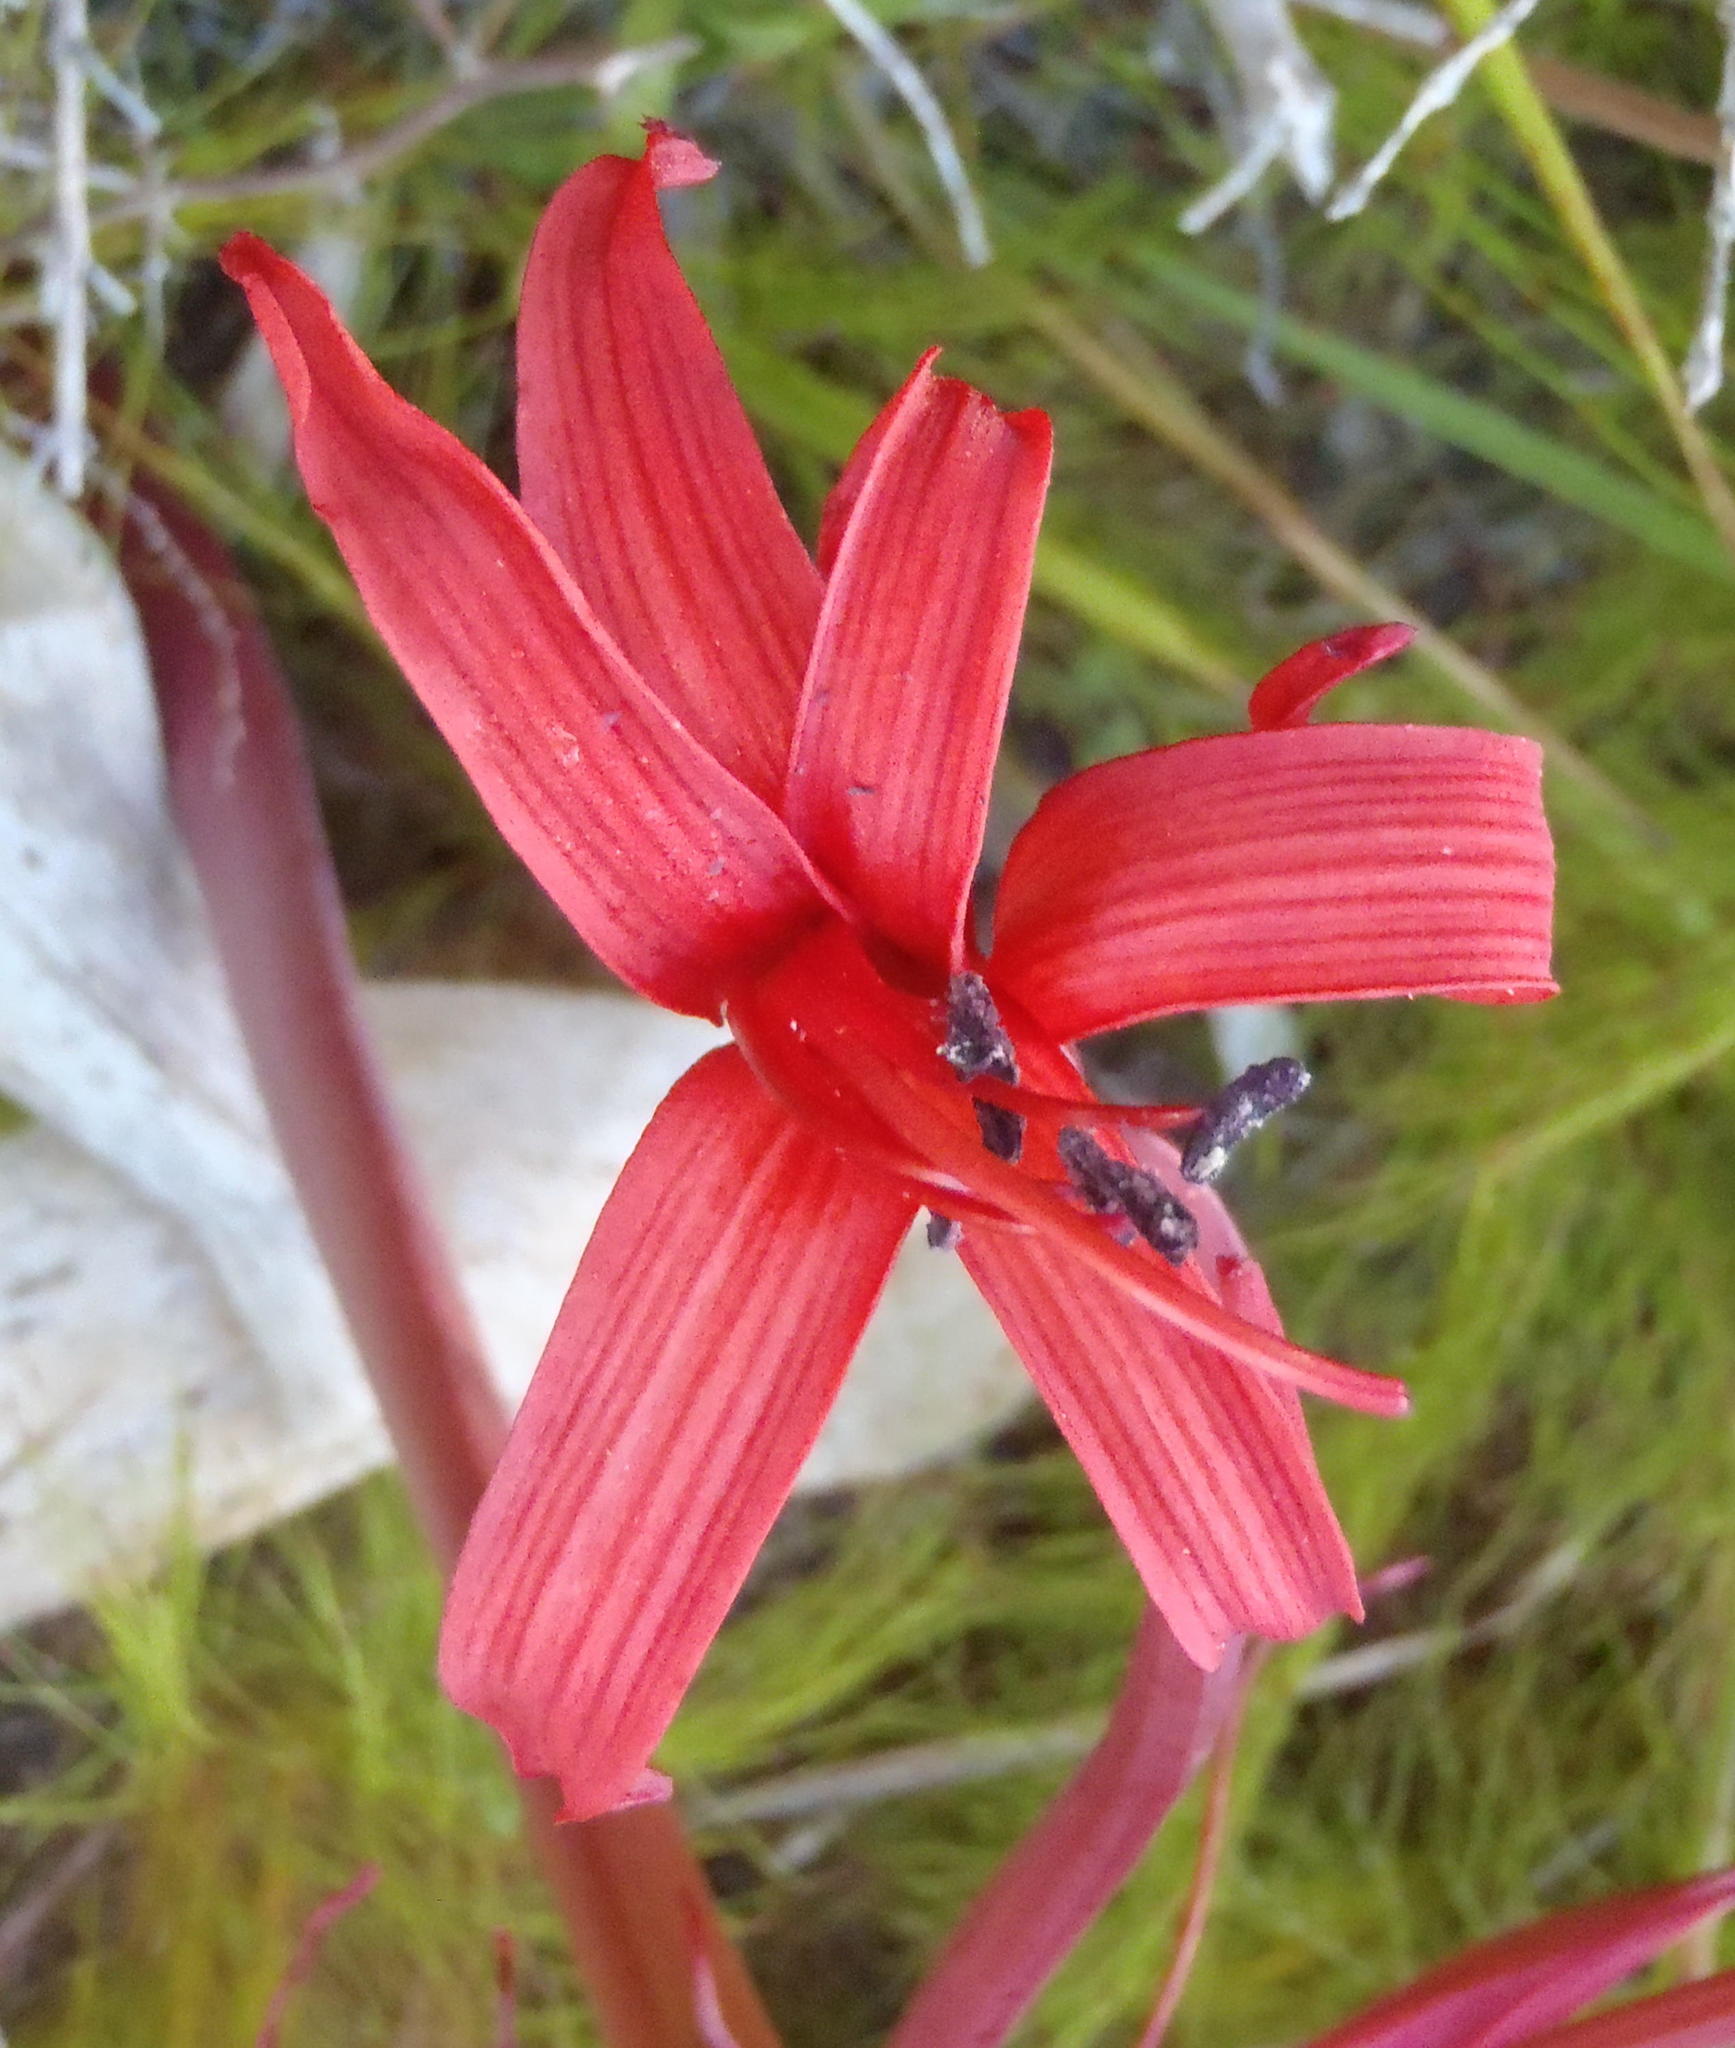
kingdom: Plantae
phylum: Tracheophyta
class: Liliopsida
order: Asparagales
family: Amaryllidaceae
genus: Brunsvigia
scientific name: Brunsvigia orientalis
